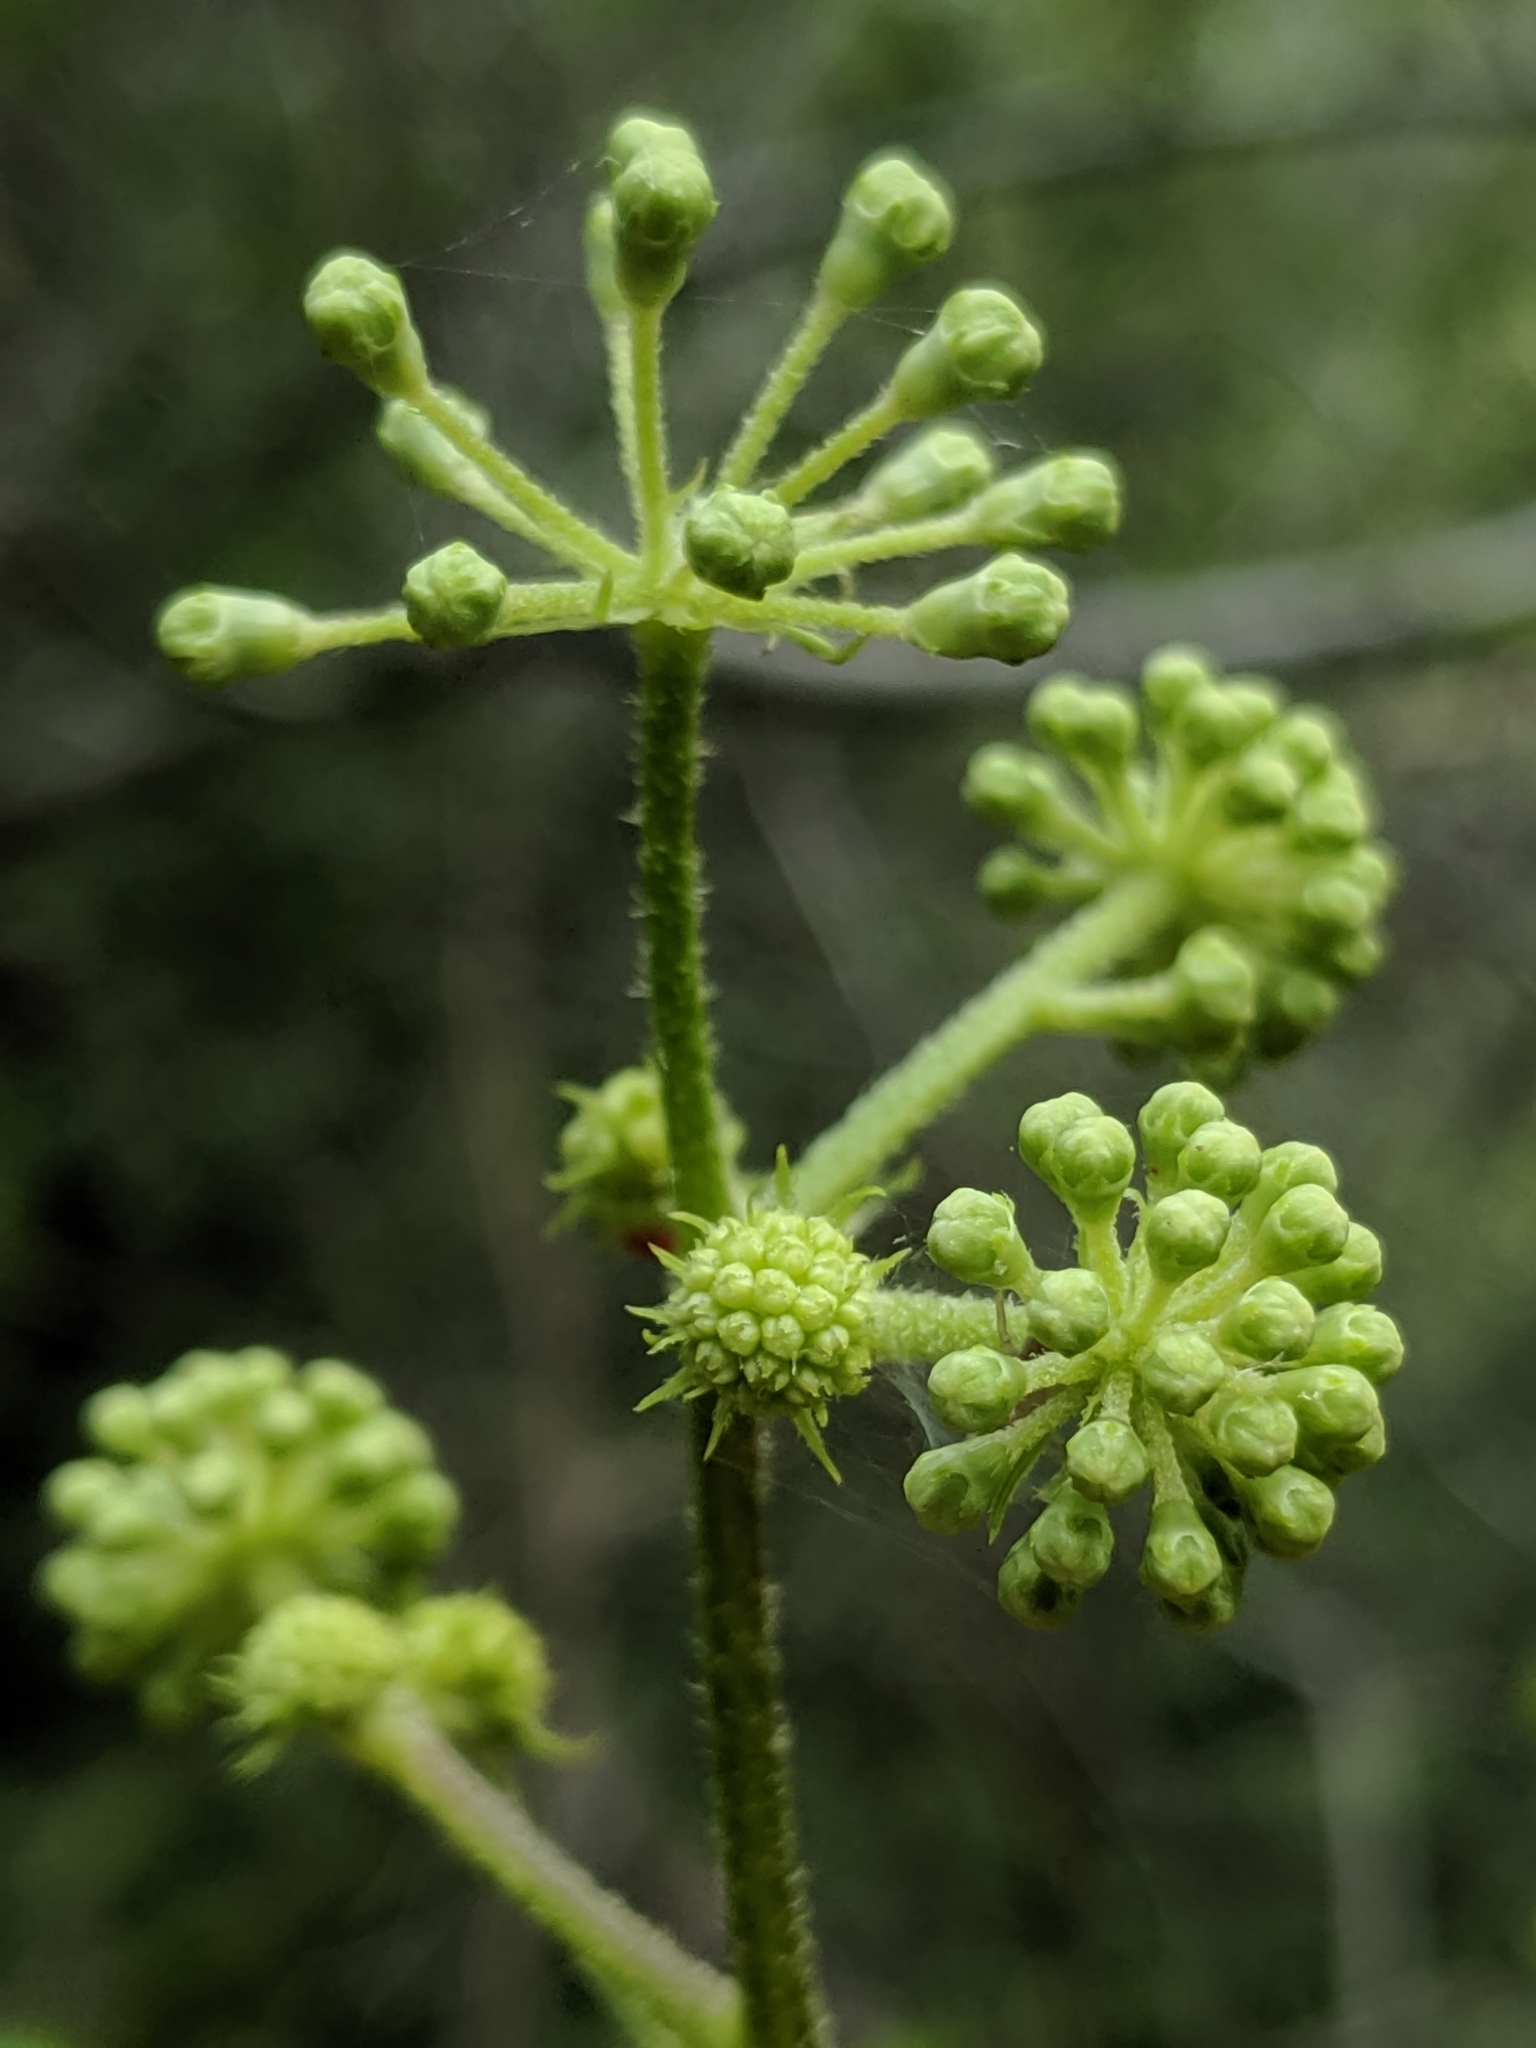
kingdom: Plantae
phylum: Tracheophyta
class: Magnoliopsida
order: Apiales
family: Araliaceae
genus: Aralia
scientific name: Aralia californica
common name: California-ginseng
